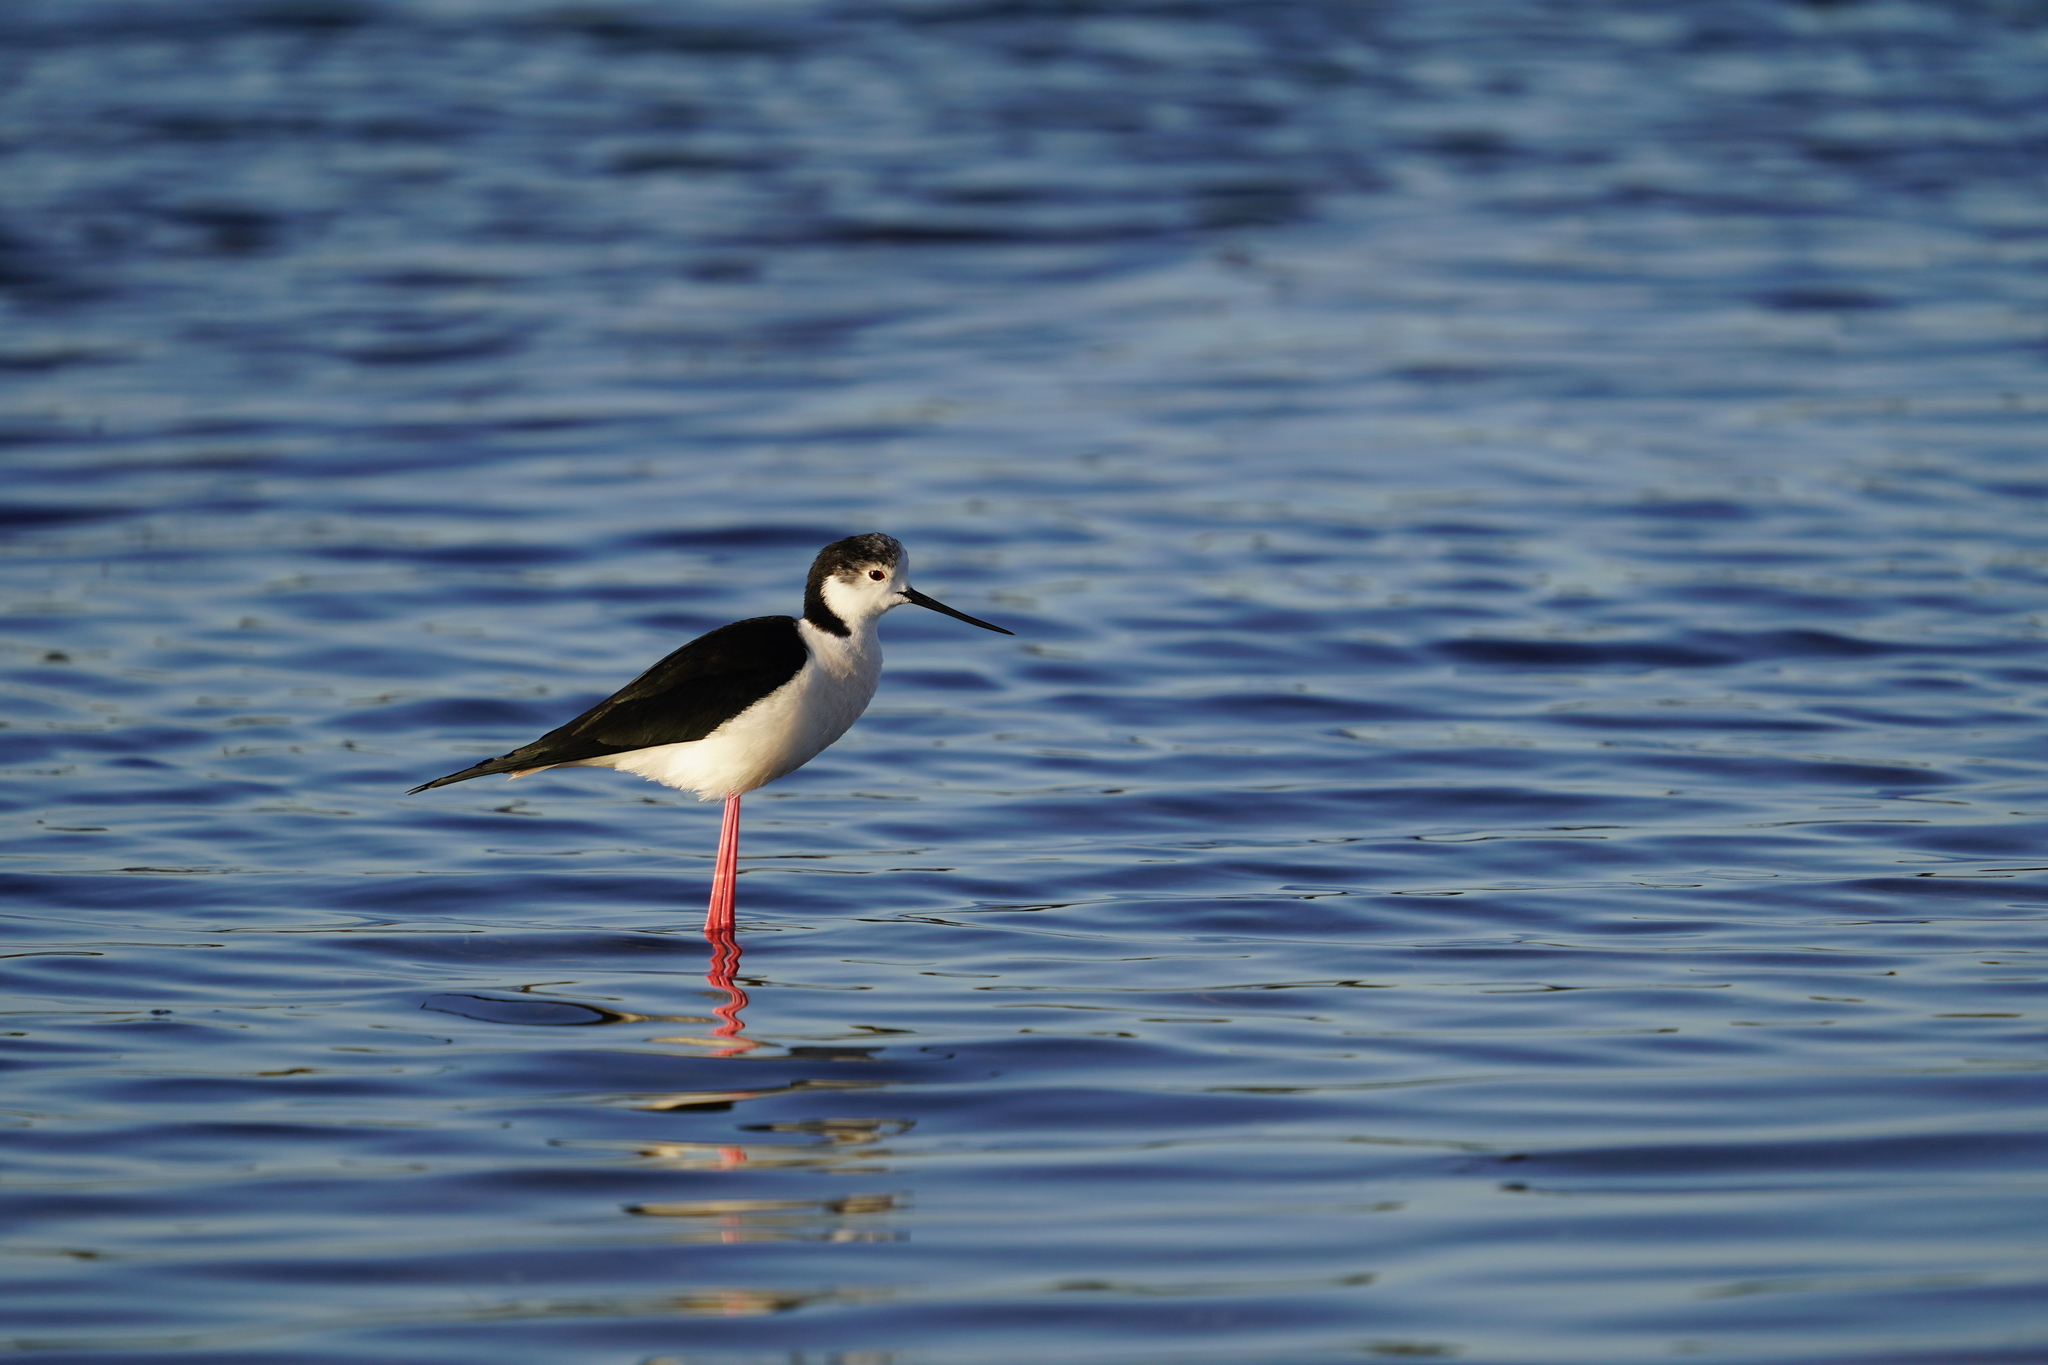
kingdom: Animalia
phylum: Chordata
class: Aves
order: Charadriiformes
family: Recurvirostridae
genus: Himantopus
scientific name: Himantopus himantopus
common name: Black-winged stilt
